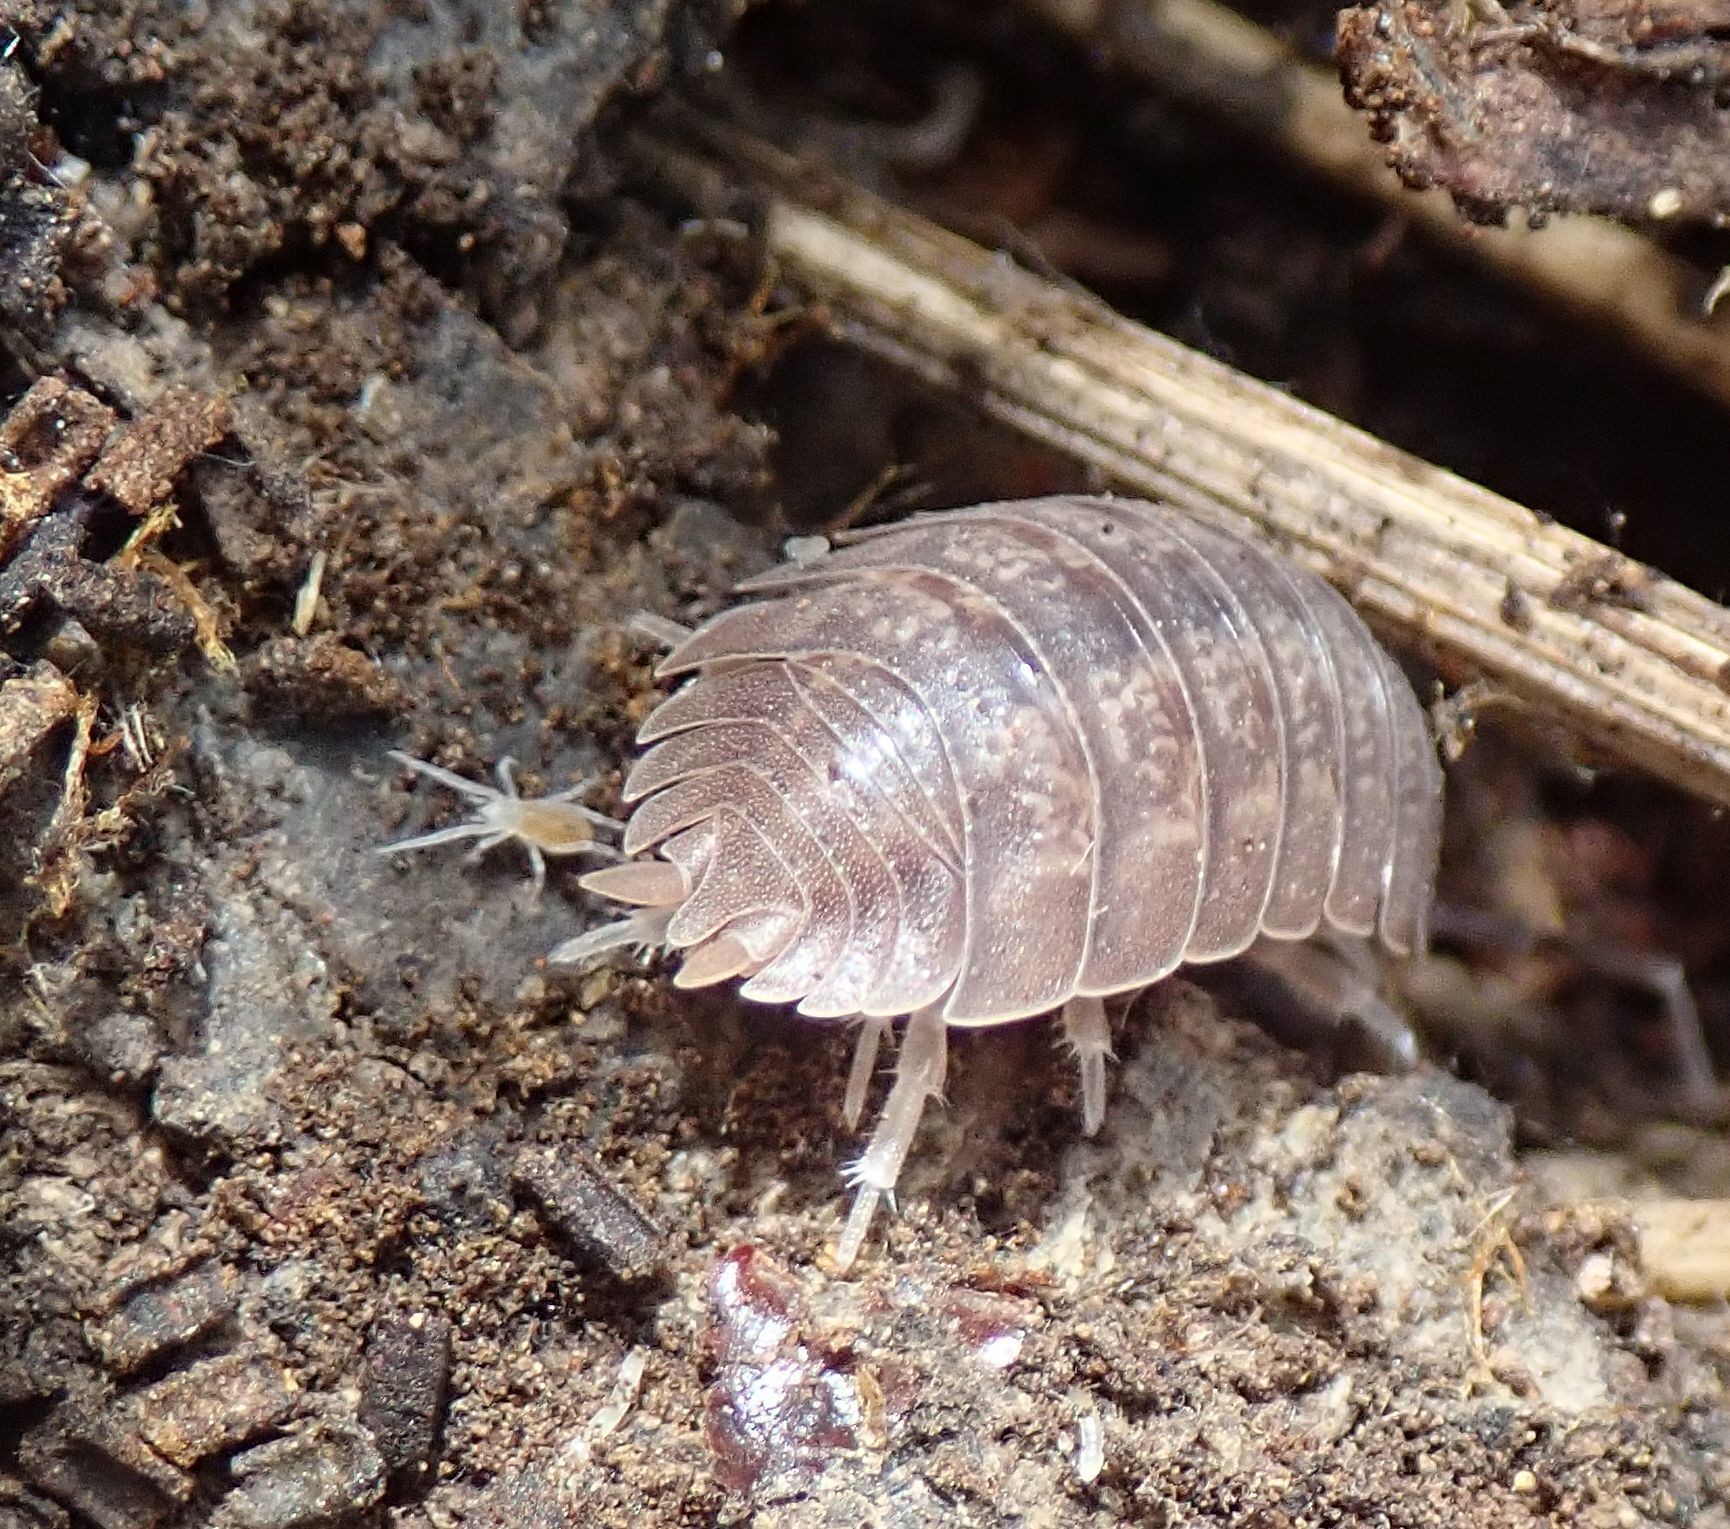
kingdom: Animalia
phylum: Arthropoda
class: Malacostraca
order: Isopoda
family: Porcellionidae
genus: Porcellio
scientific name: Porcellio dilatatus
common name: Isopod
